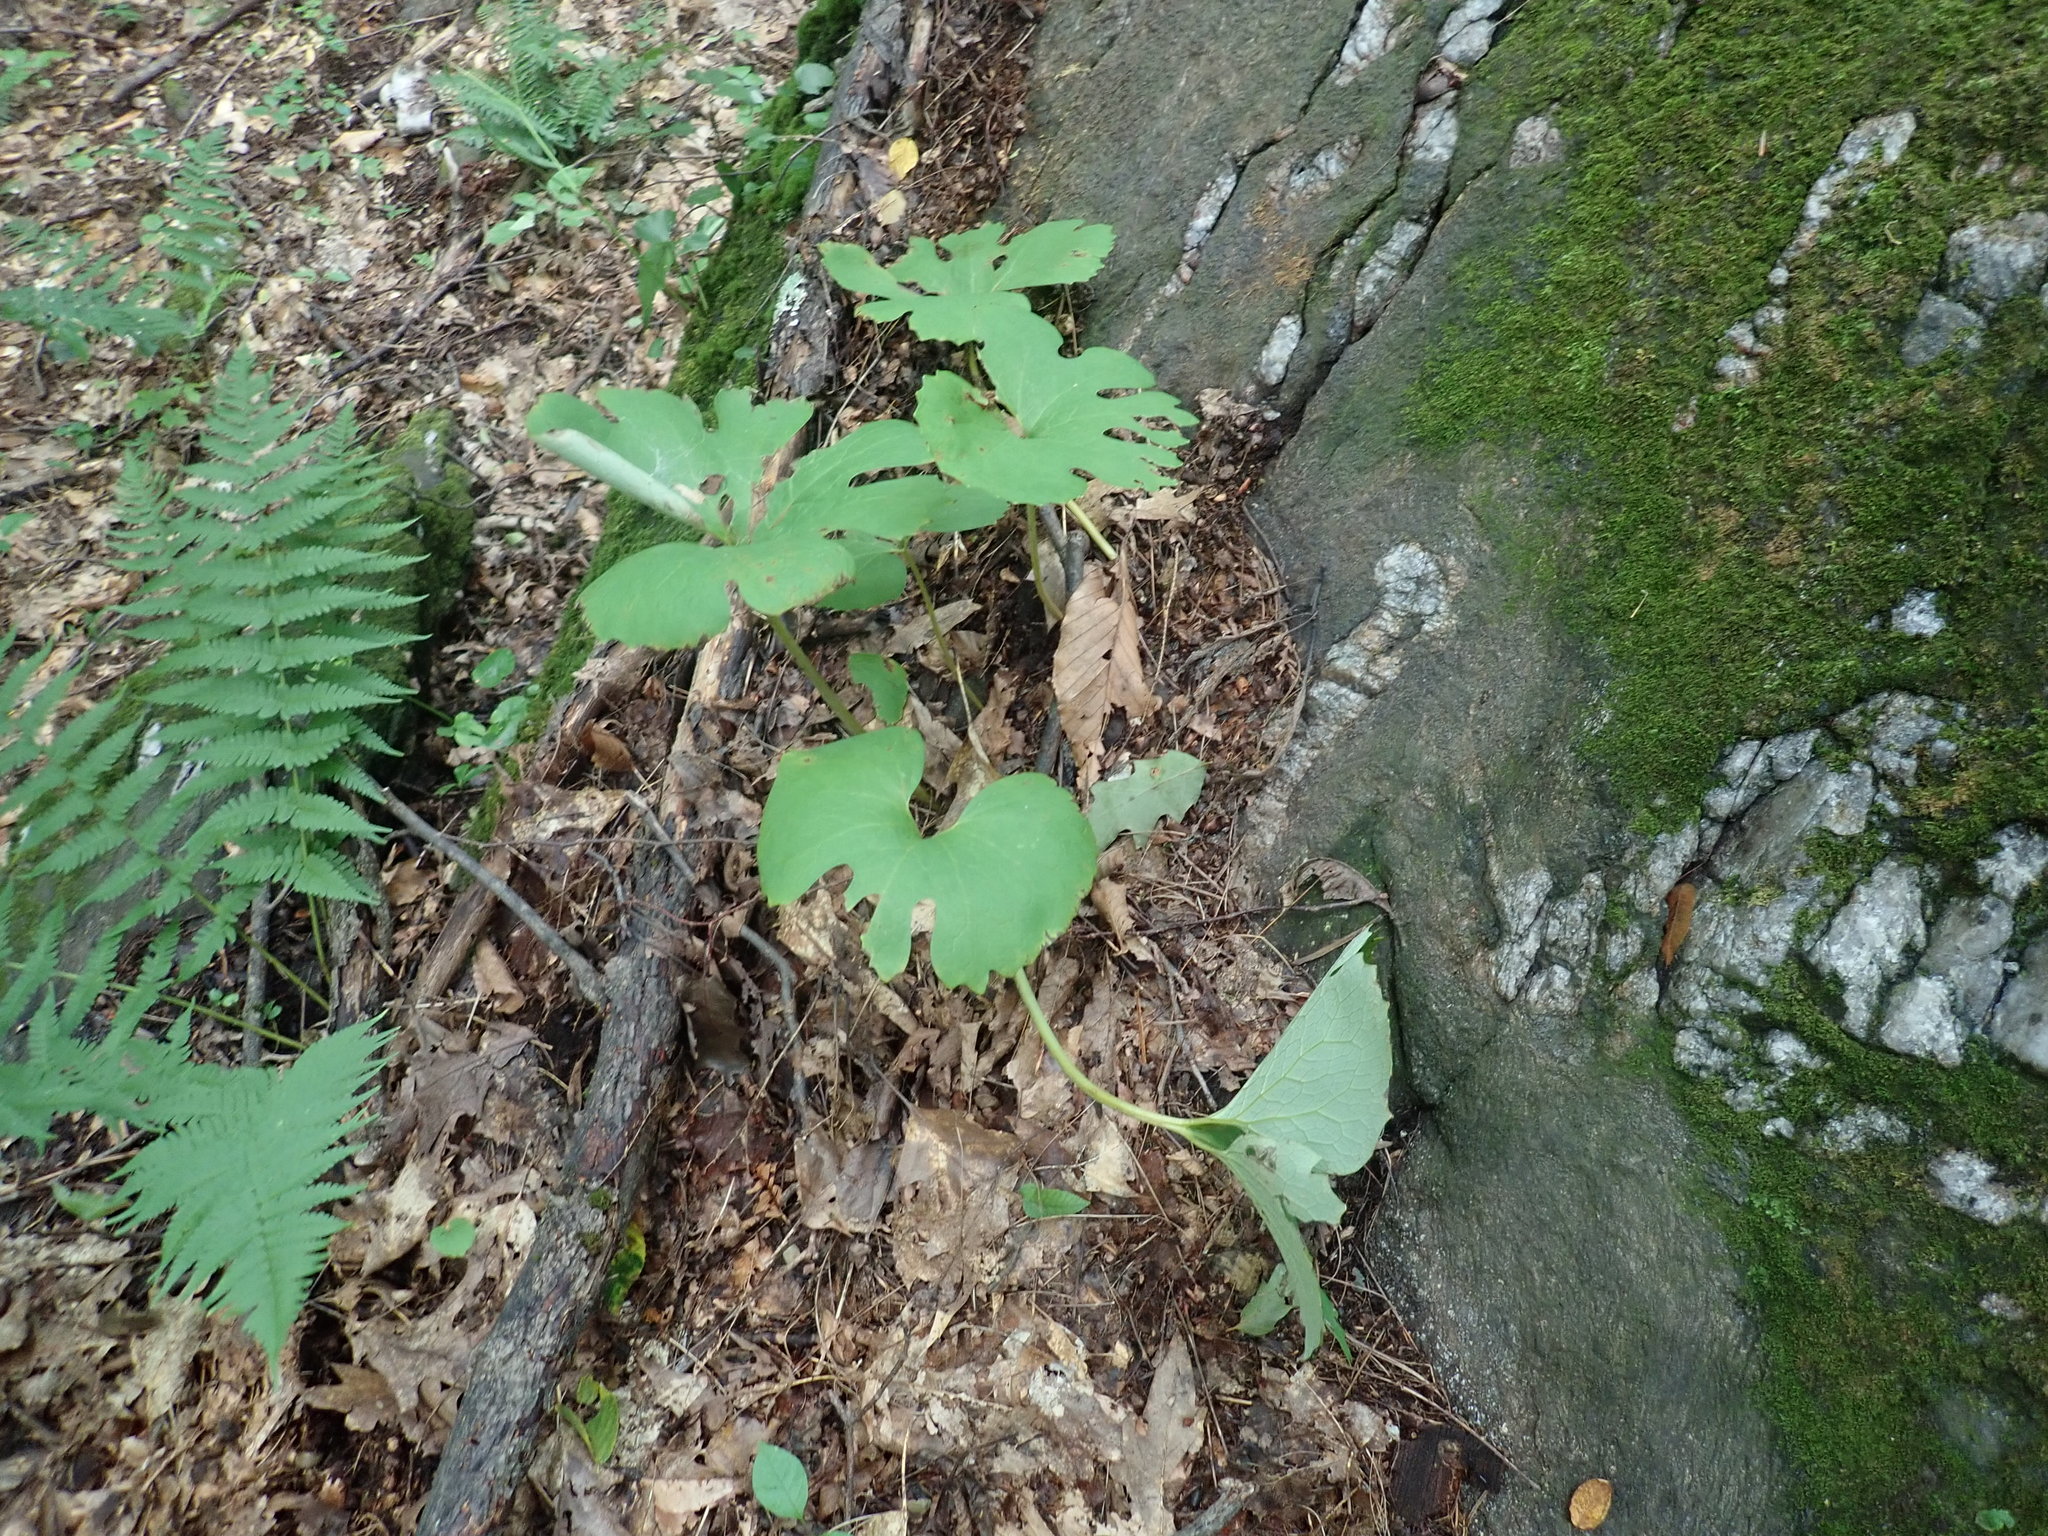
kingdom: Plantae
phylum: Tracheophyta
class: Magnoliopsida
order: Ranunculales
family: Papaveraceae
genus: Sanguinaria
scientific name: Sanguinaria canadensis
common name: Bloodroot
